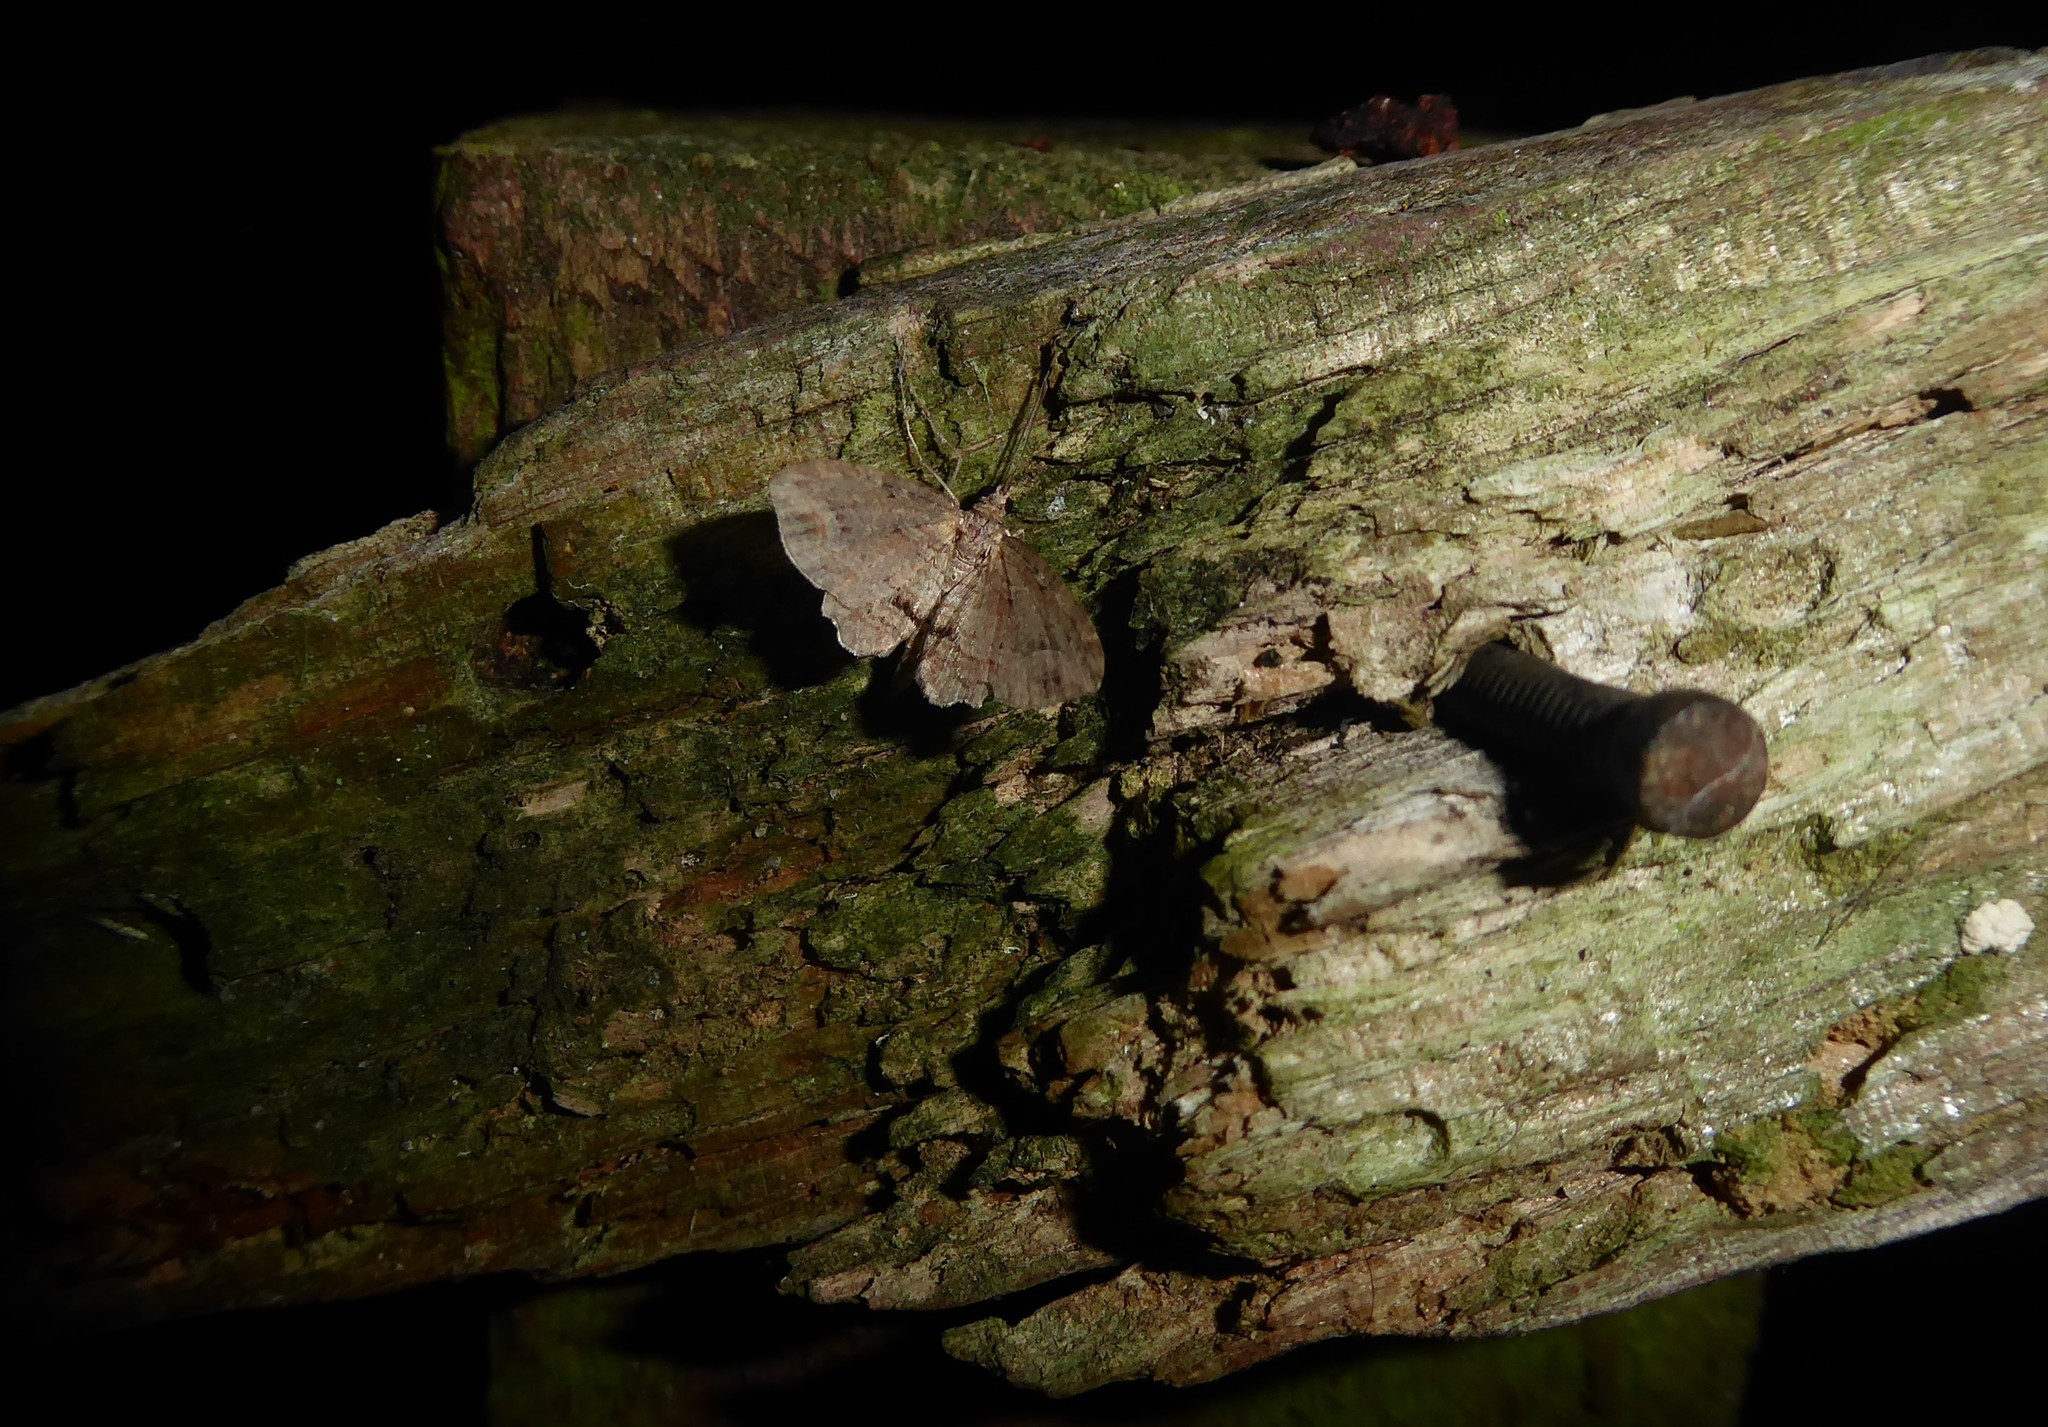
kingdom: Animalia
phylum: Arthropoda
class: Insecta
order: Lepidoptera
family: Geometridae
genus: Chloroclystis
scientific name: Chloroclystis filata
